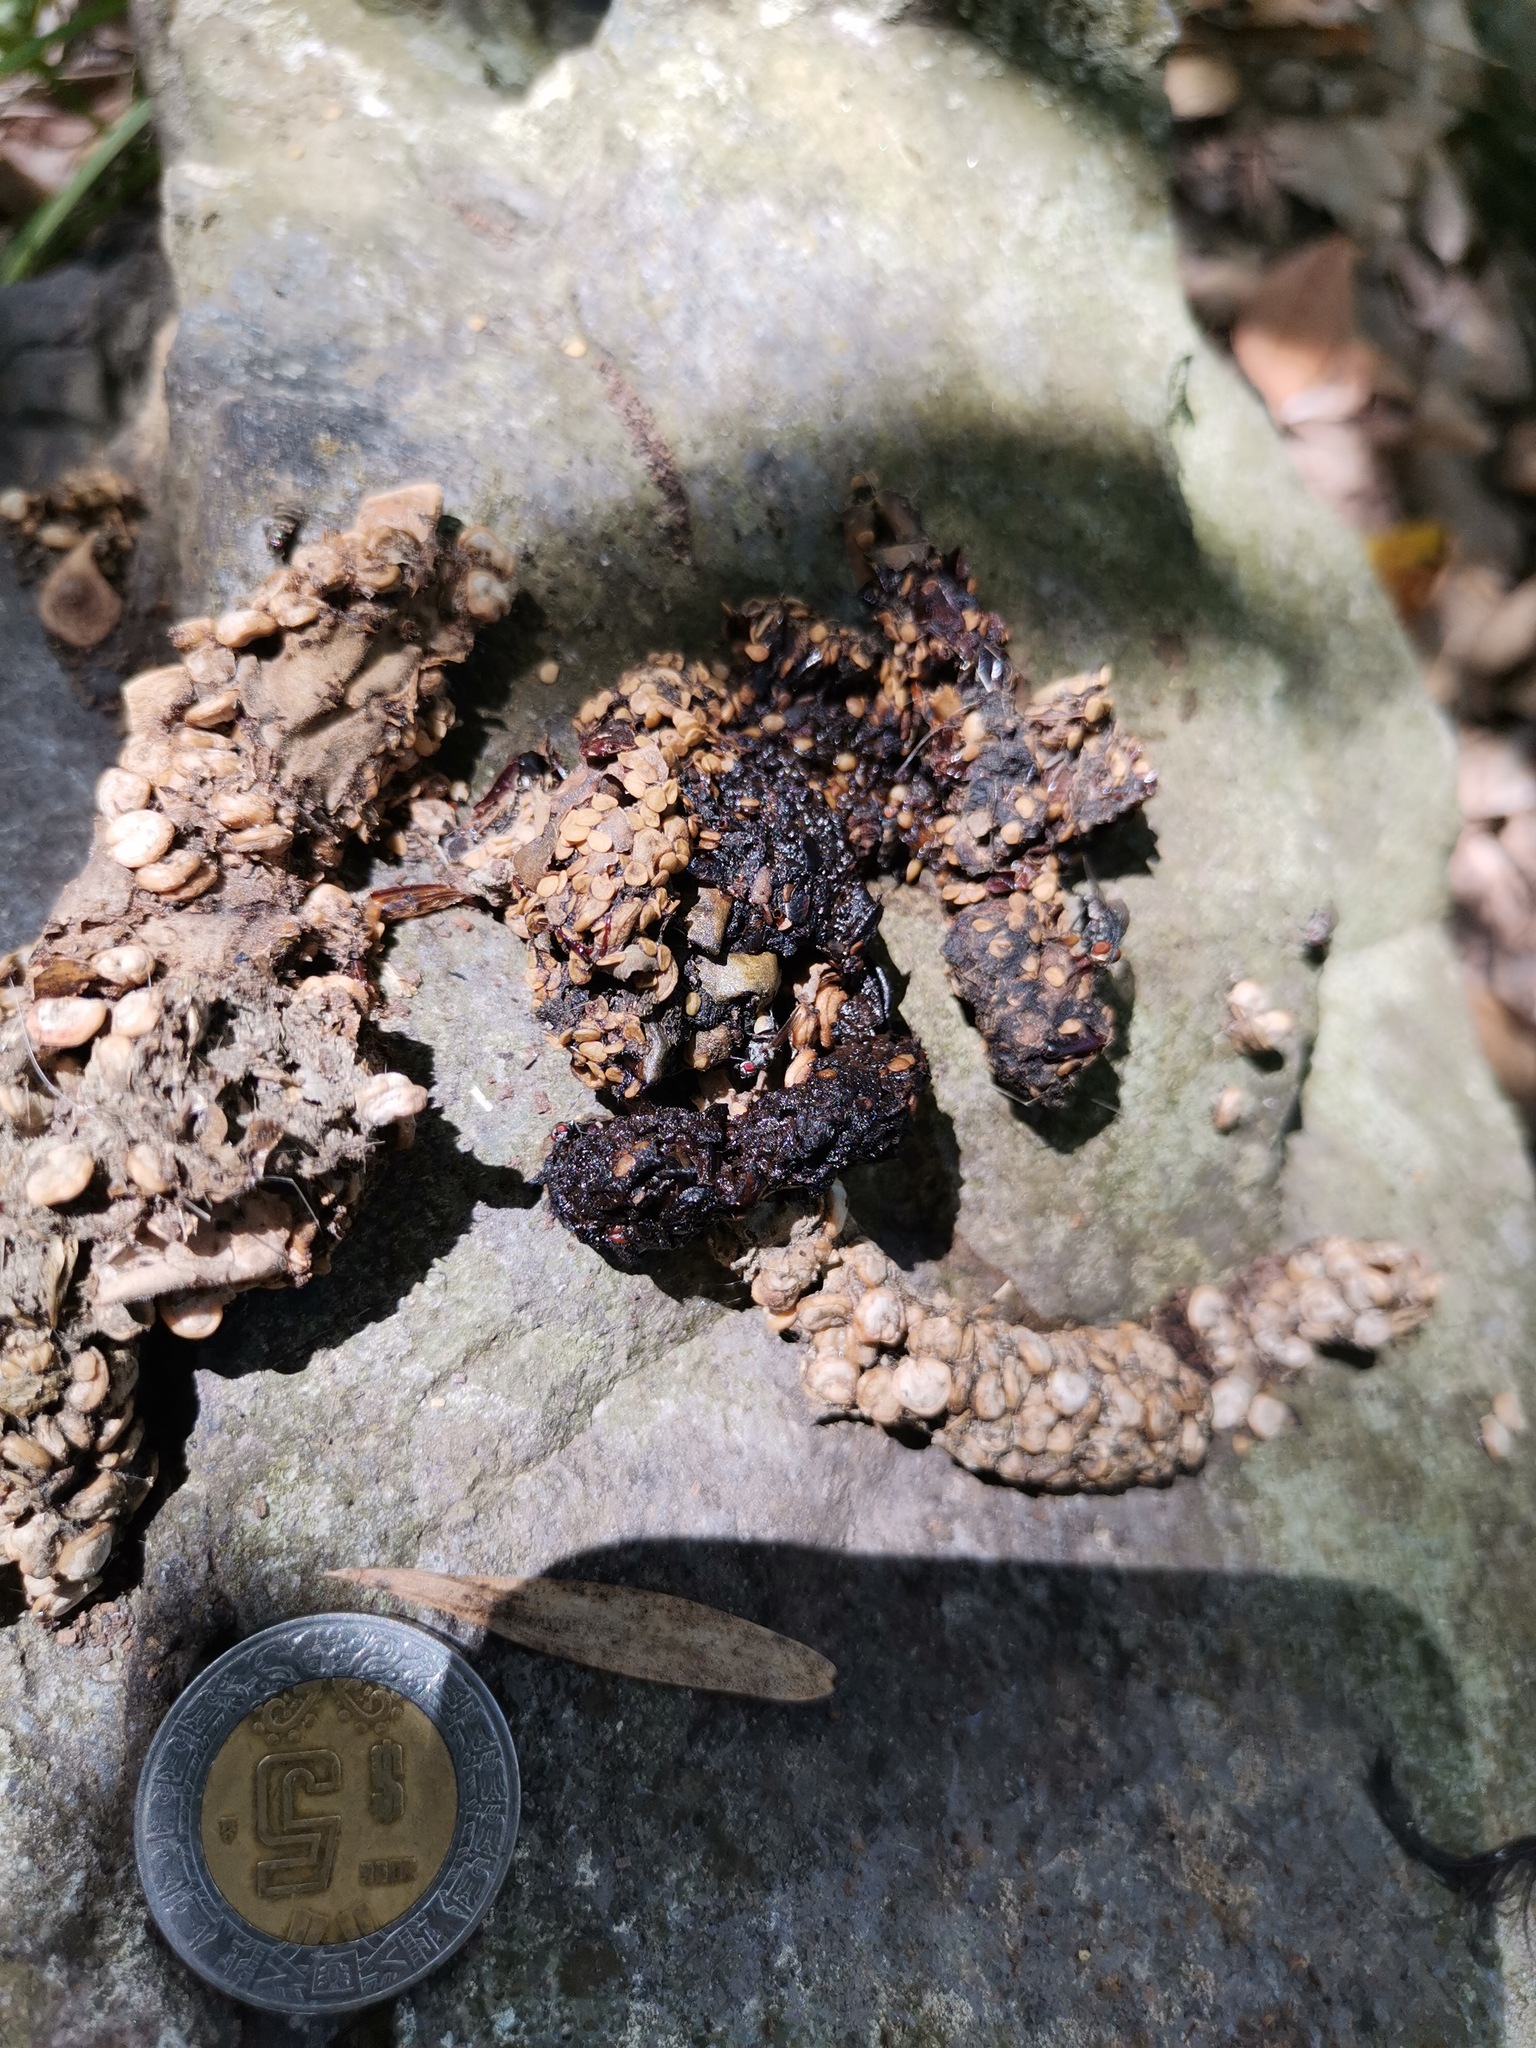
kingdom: Animalia
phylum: Chordata
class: Mammalia
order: Carnivora
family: Procyonidae
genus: Bassariscus
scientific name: Bassariscus astutus
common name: Ringtail
